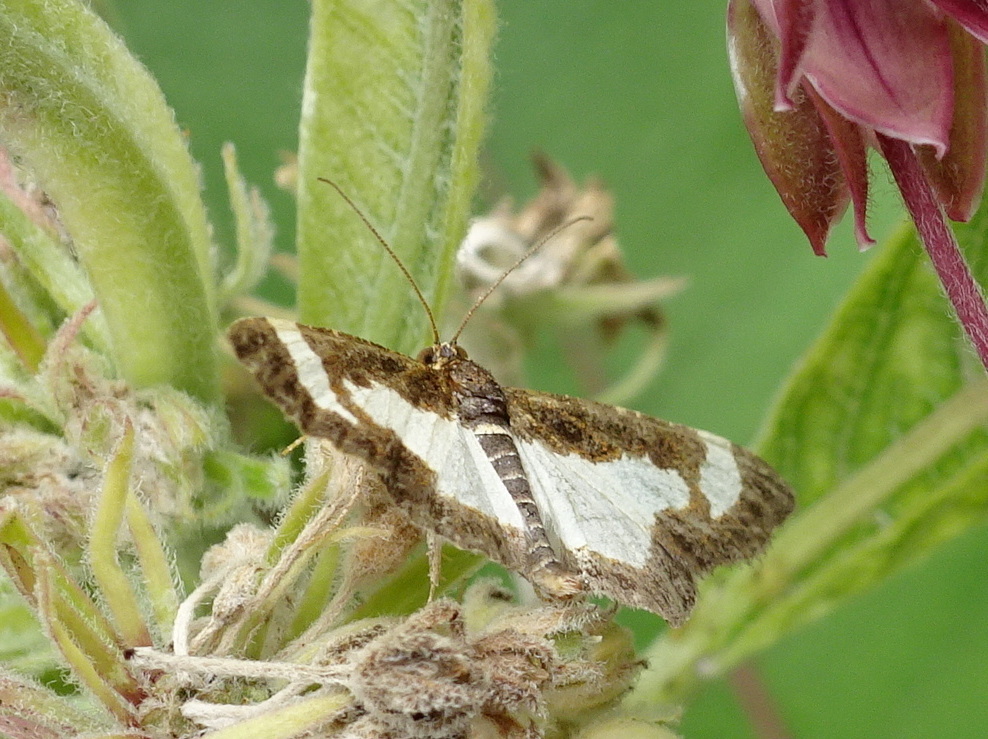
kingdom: Animalia
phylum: Arthropoda
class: Insecta
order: Lepidoptera
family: Geometridae
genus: Heliomata
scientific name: Heliomata cycladata
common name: Common spring moth
